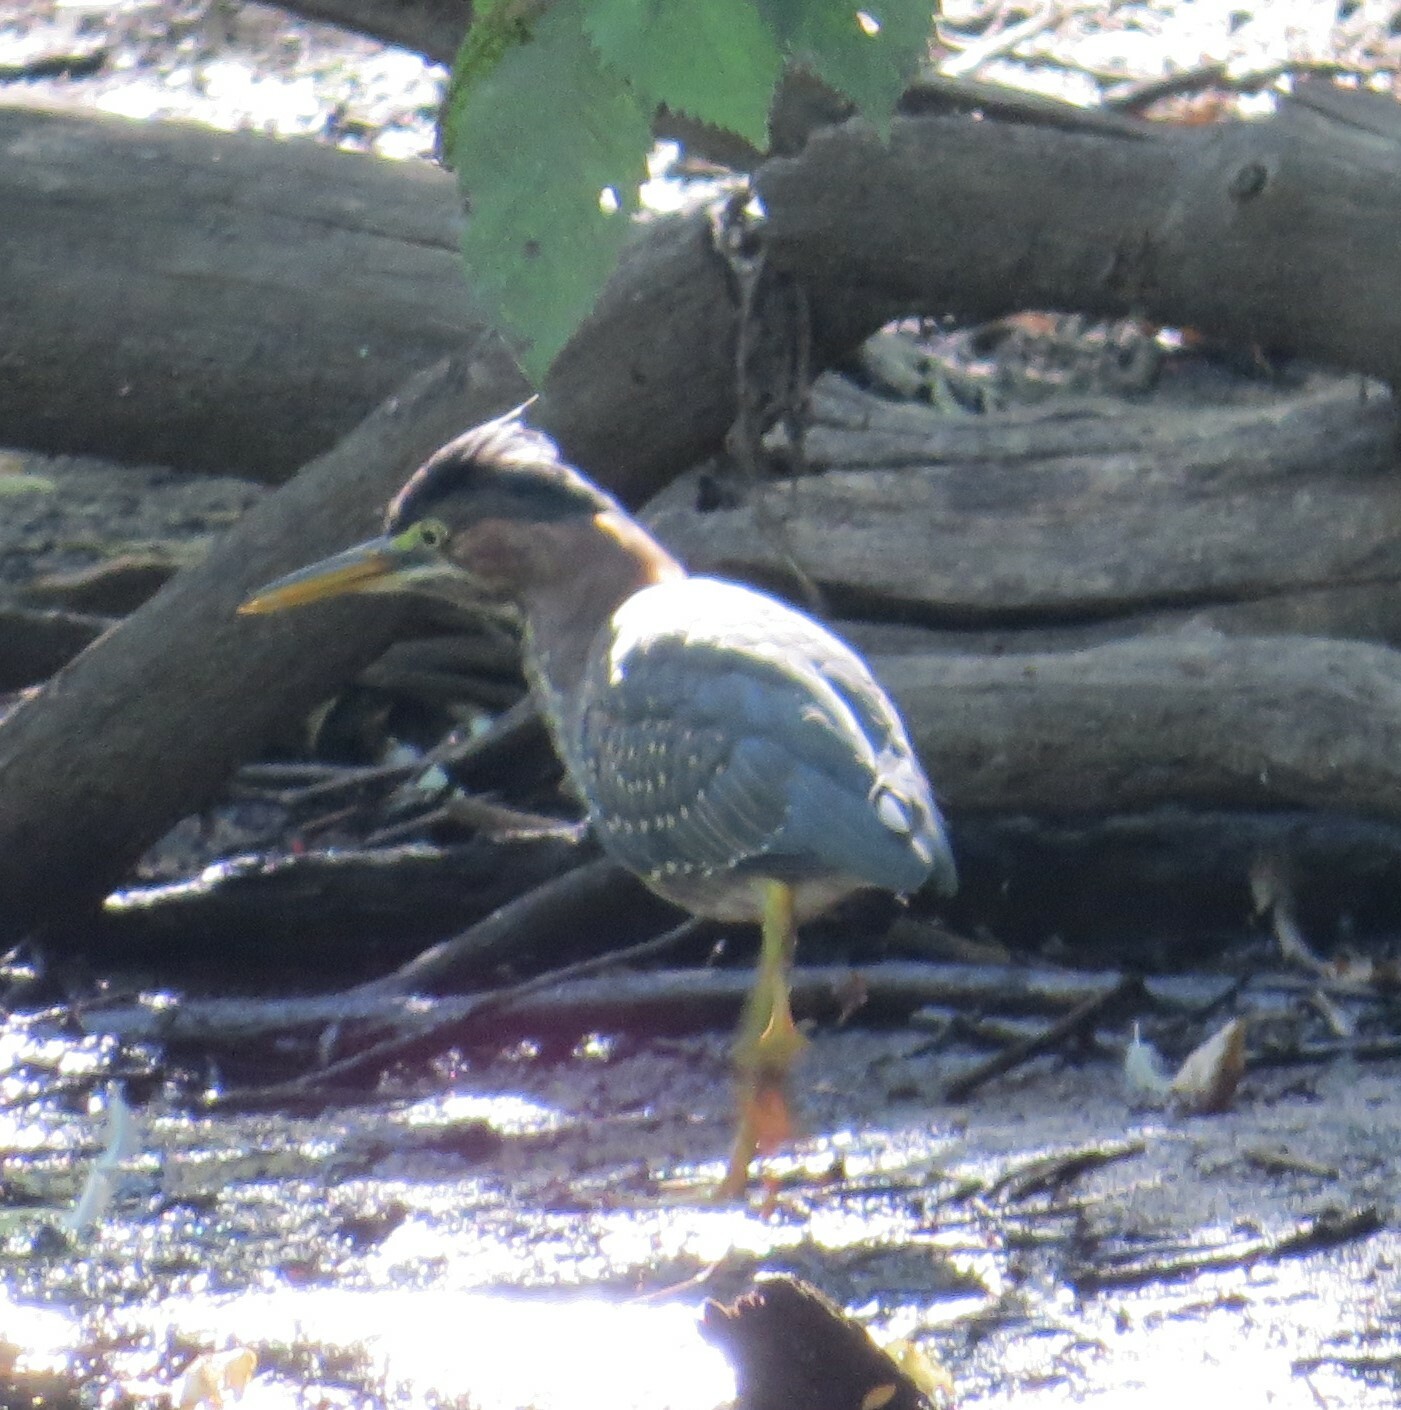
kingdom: Animalia
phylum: Chordata
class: Aves
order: Pelecaniformes
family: Ardeidae
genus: Butorides
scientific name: Butorides virescens
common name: Green heron
